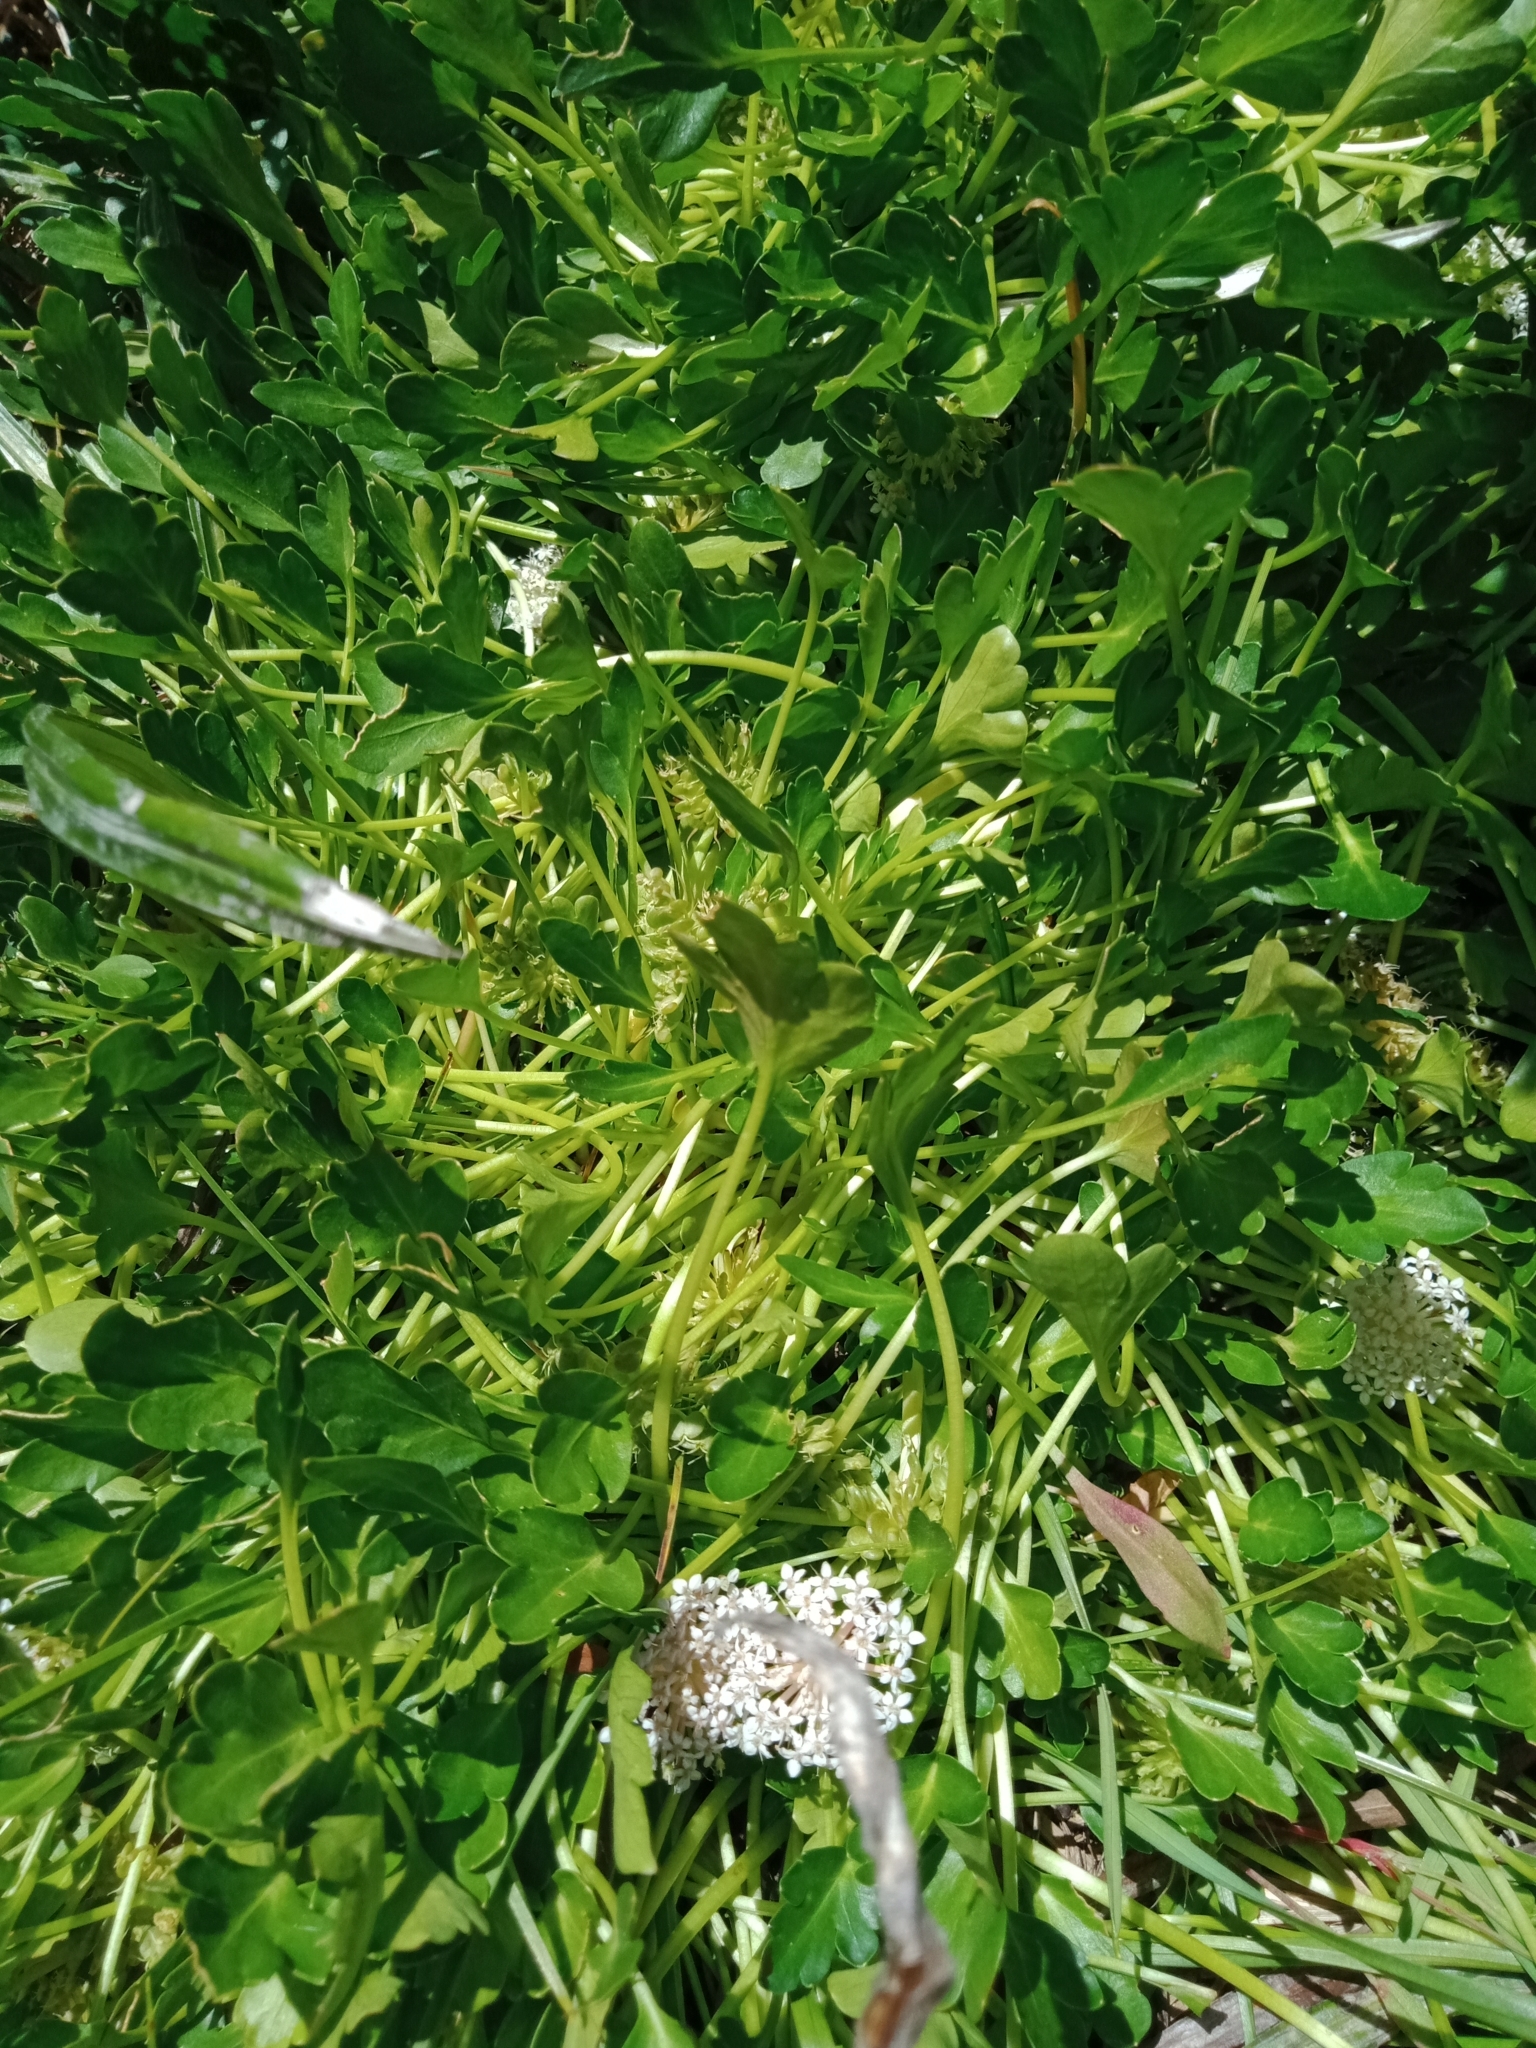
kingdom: Plantae
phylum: Tracheophyta
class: Magnoliopsida
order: Apiales
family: Araliaceae
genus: Trachymene
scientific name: Trachymene humilis
